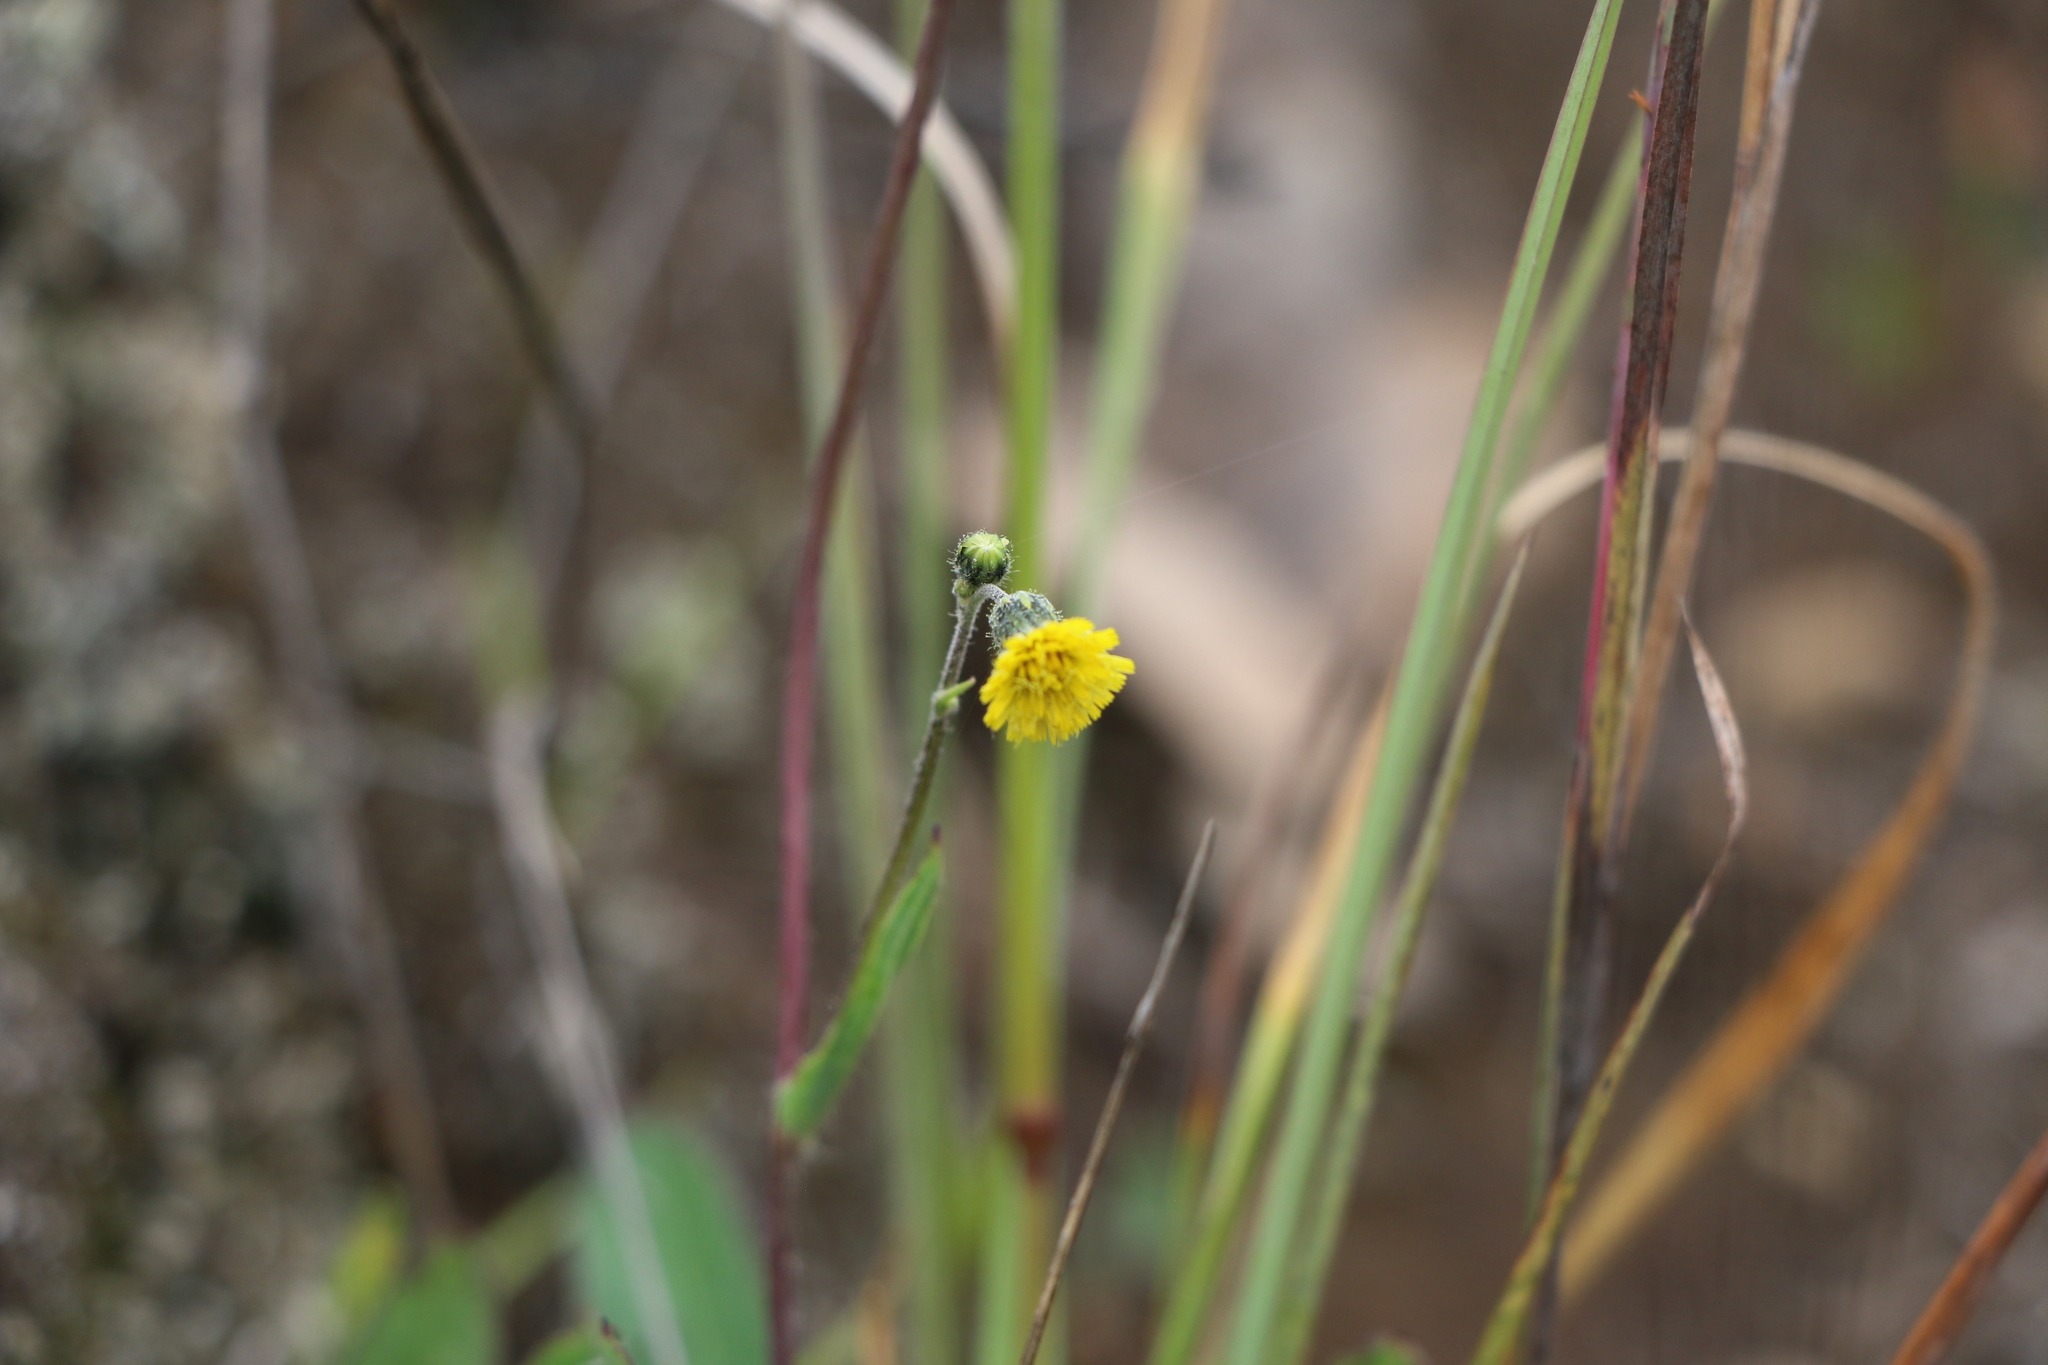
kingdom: Plantae
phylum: Tracheophyta
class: Magnoliopsida
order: Asterales
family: Asteraceae
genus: Hieracium
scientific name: Hieracium avilae
